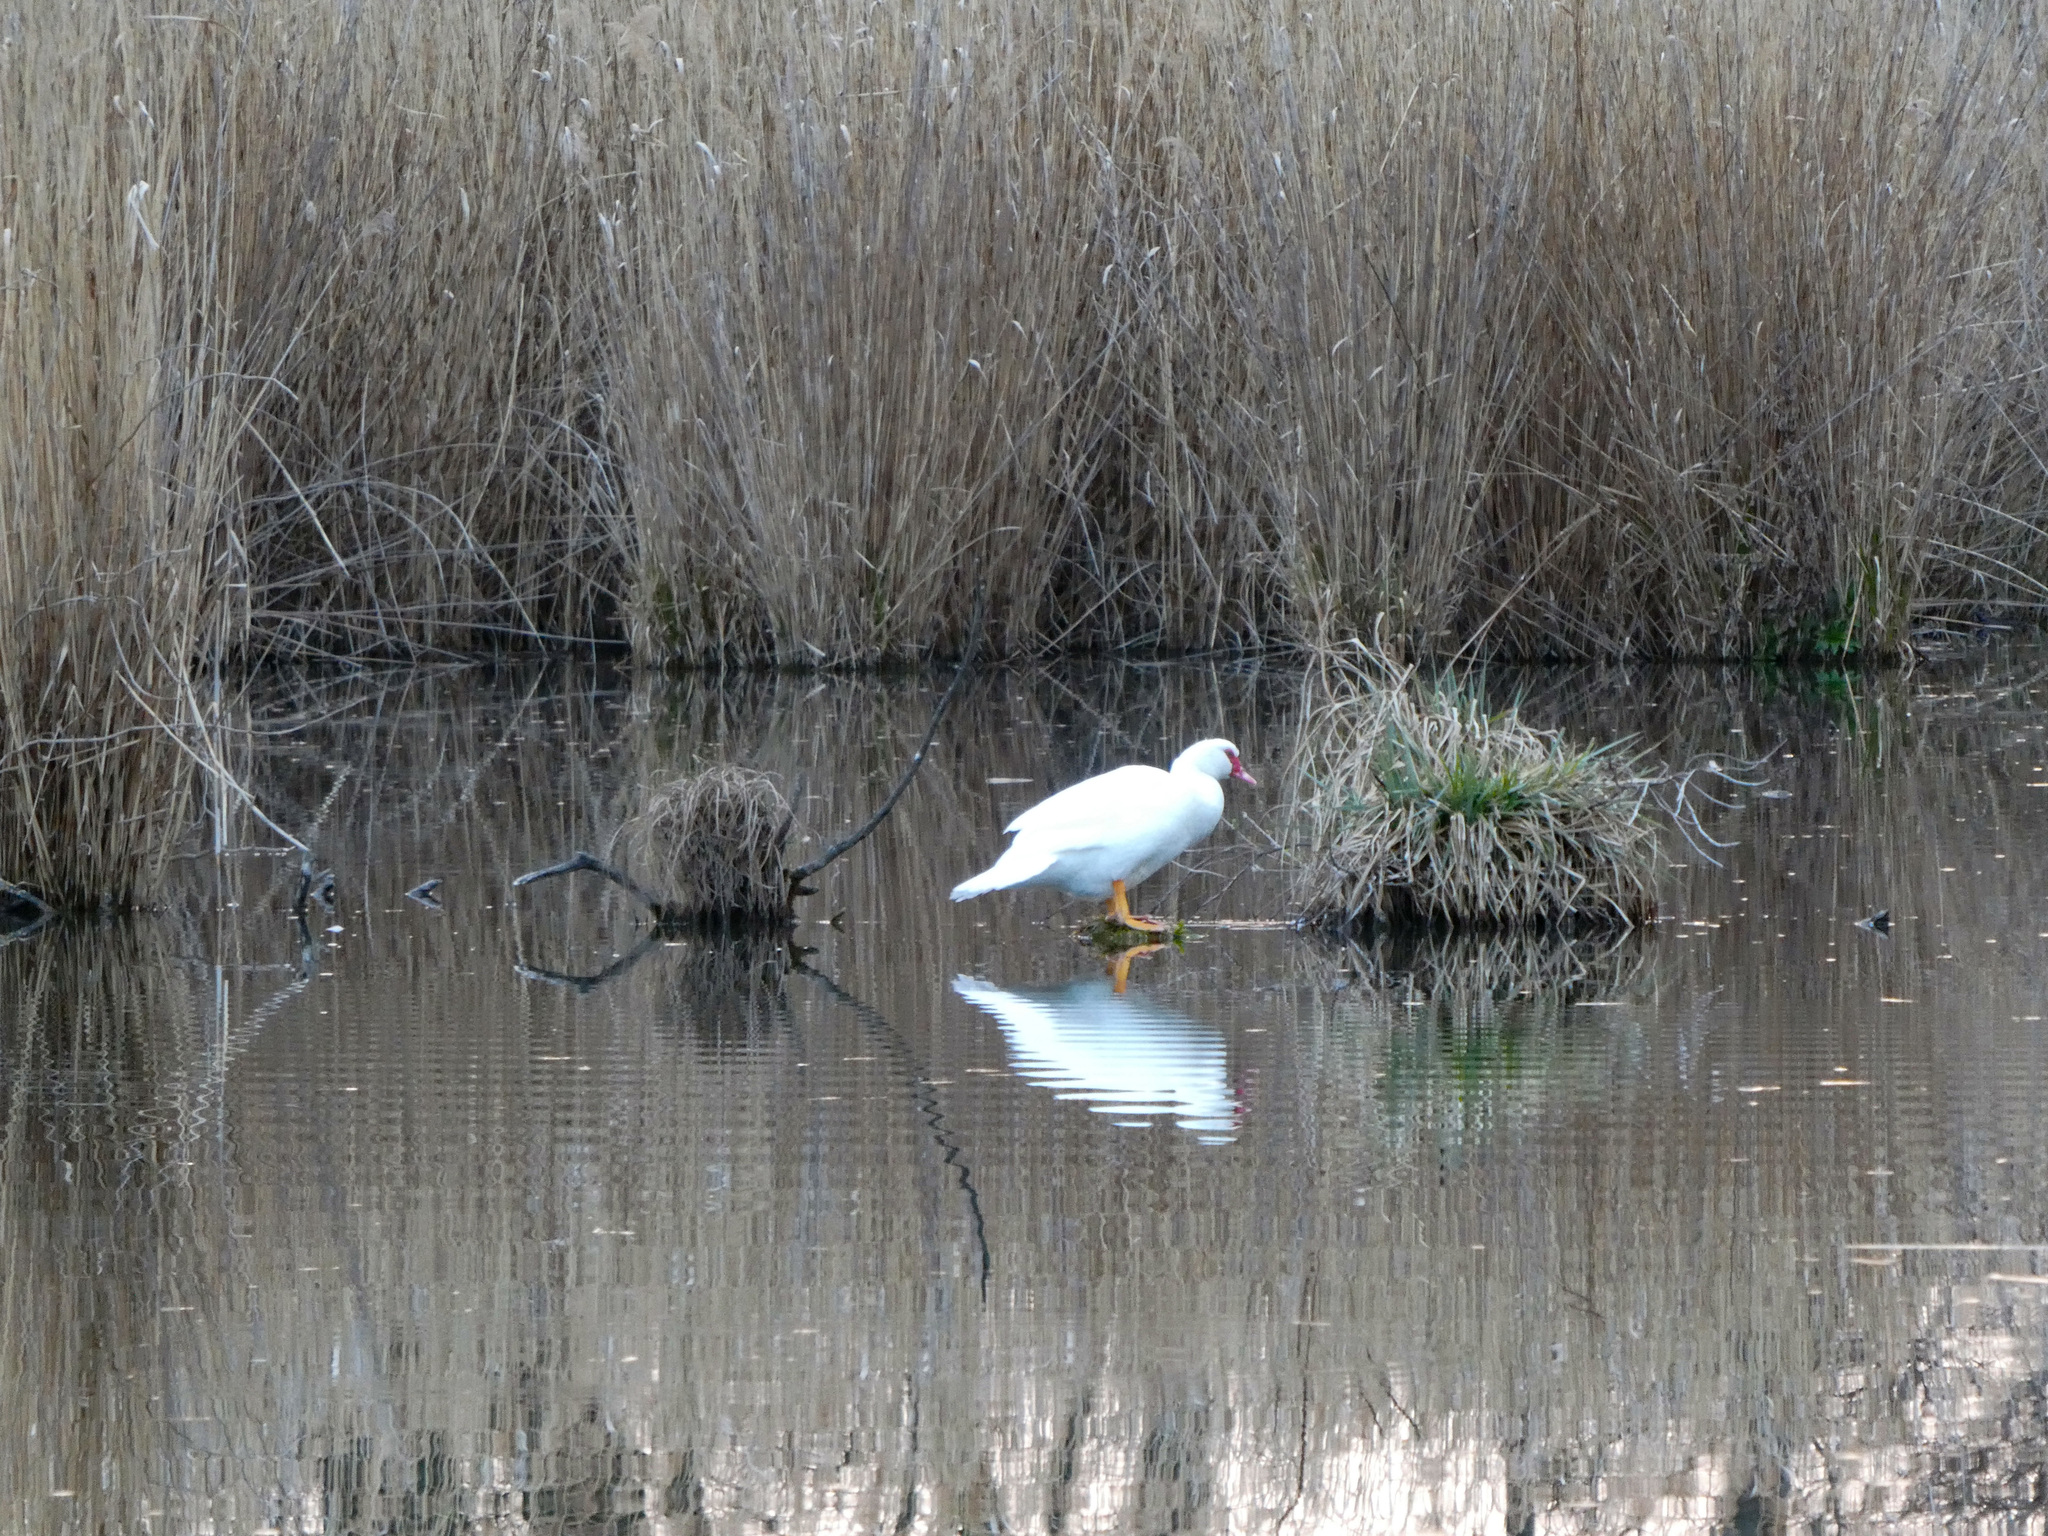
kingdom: Animalia
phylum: Chordata
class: Aves
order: Anseriformes
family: Anatidae
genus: Cairina
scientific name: Cairina moschata
